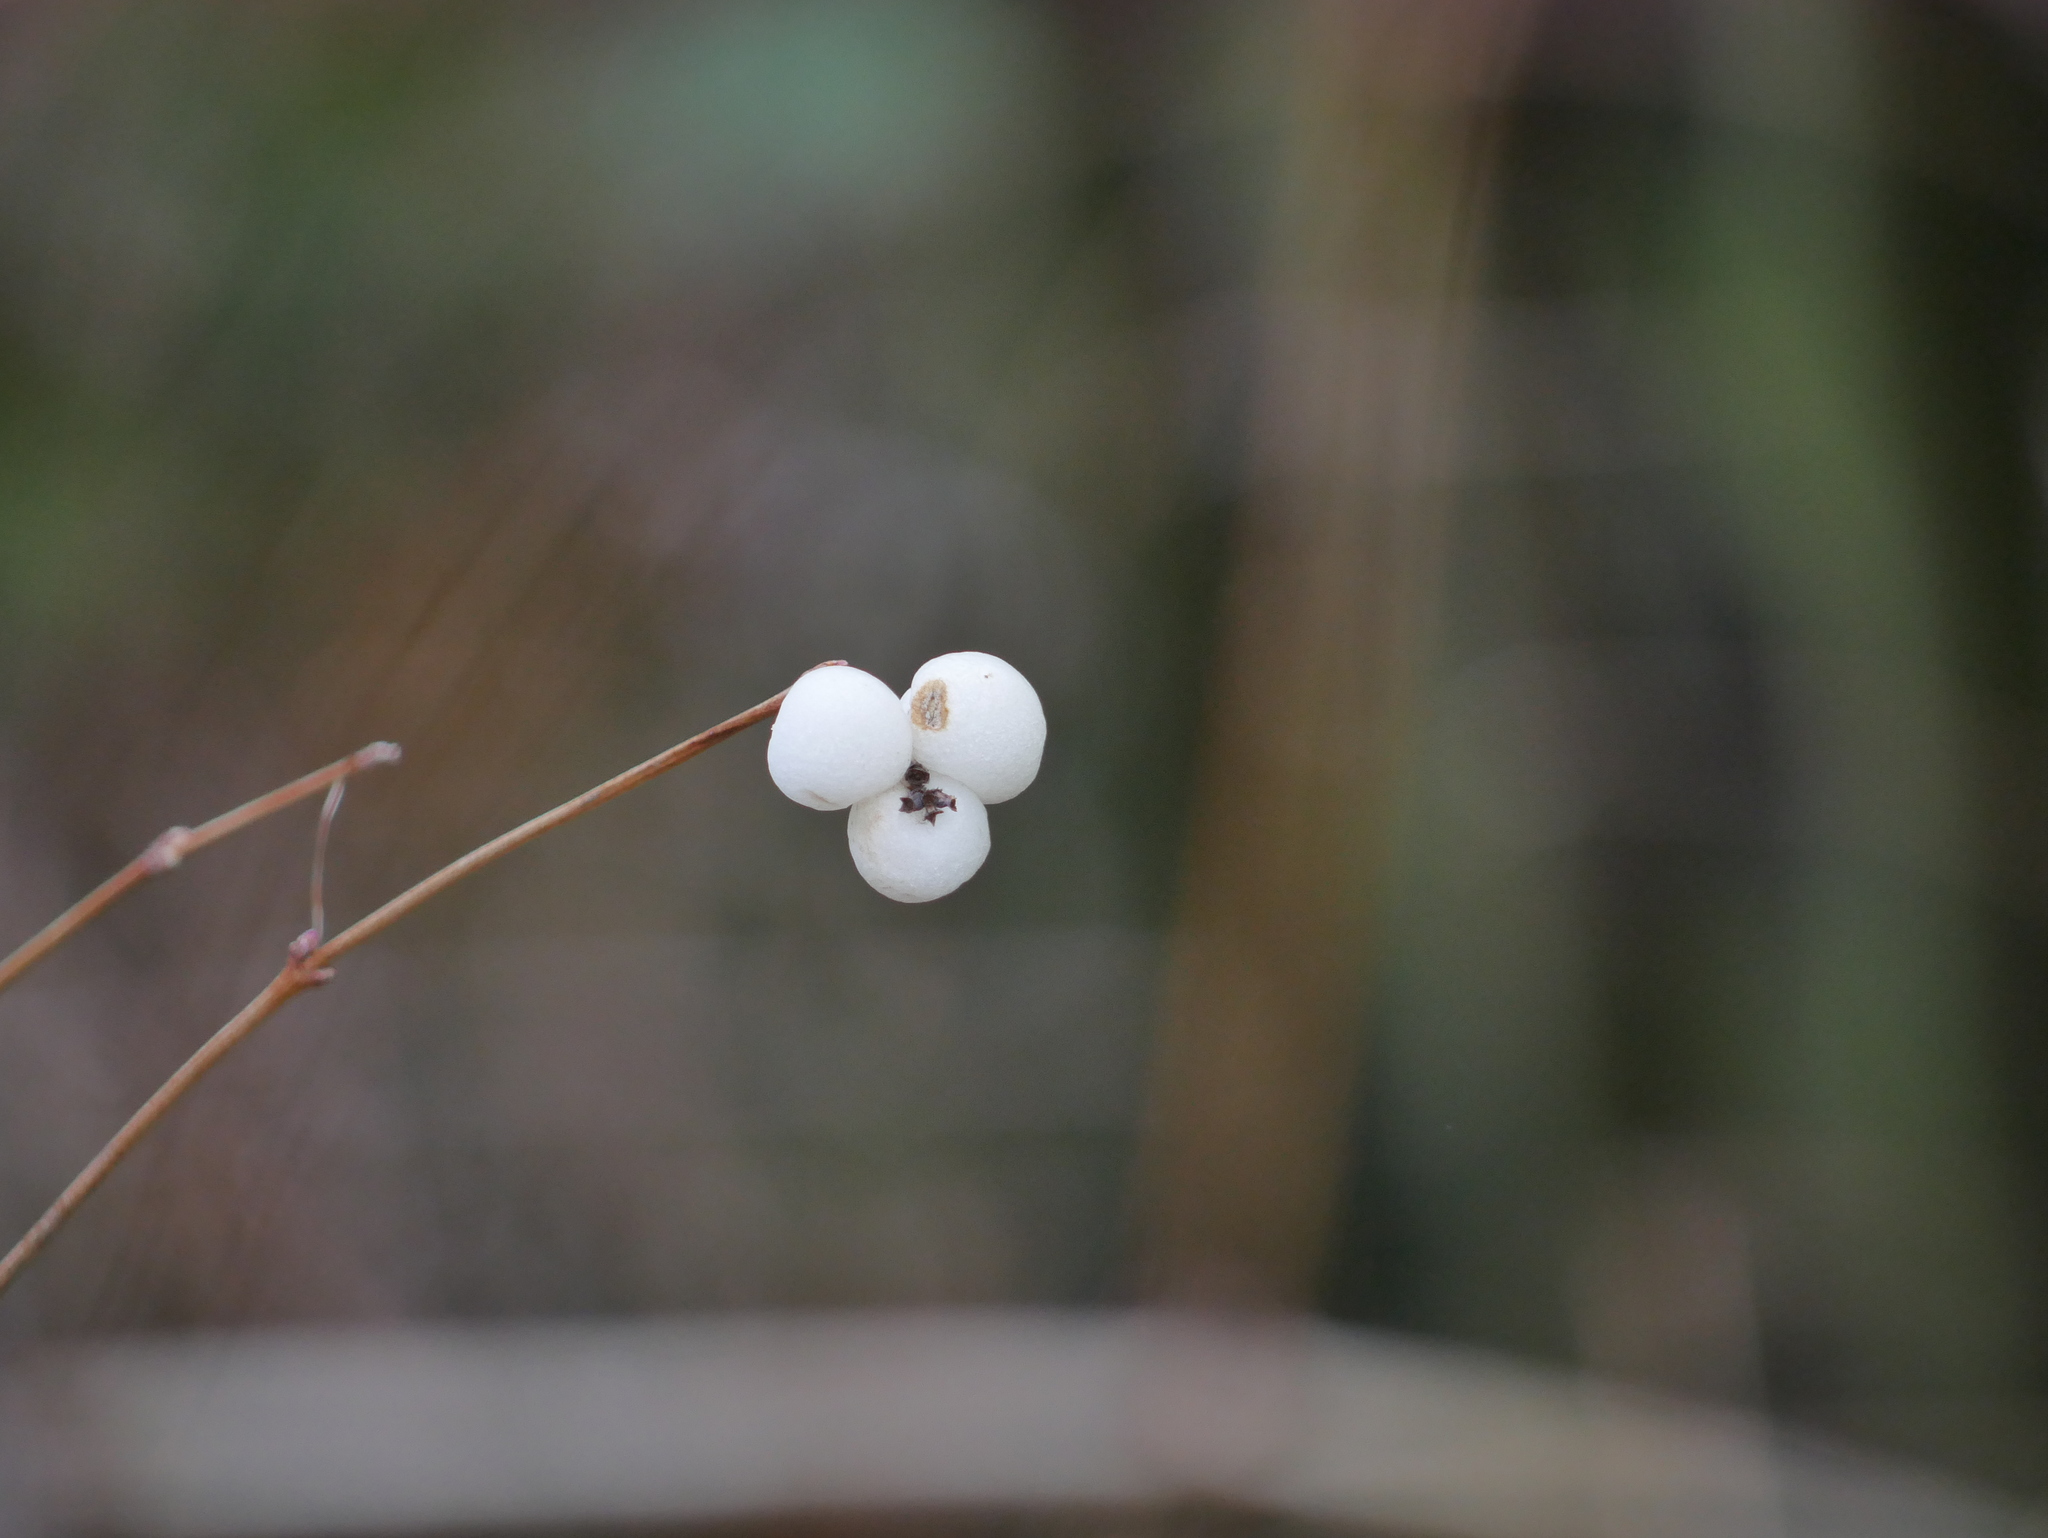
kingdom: Plantae
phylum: Tracheophyta
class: Magnoliopsida
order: Dipsacales
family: Caprifoliaceae
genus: Symphoricarpos
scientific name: Symphoricarpos albus
